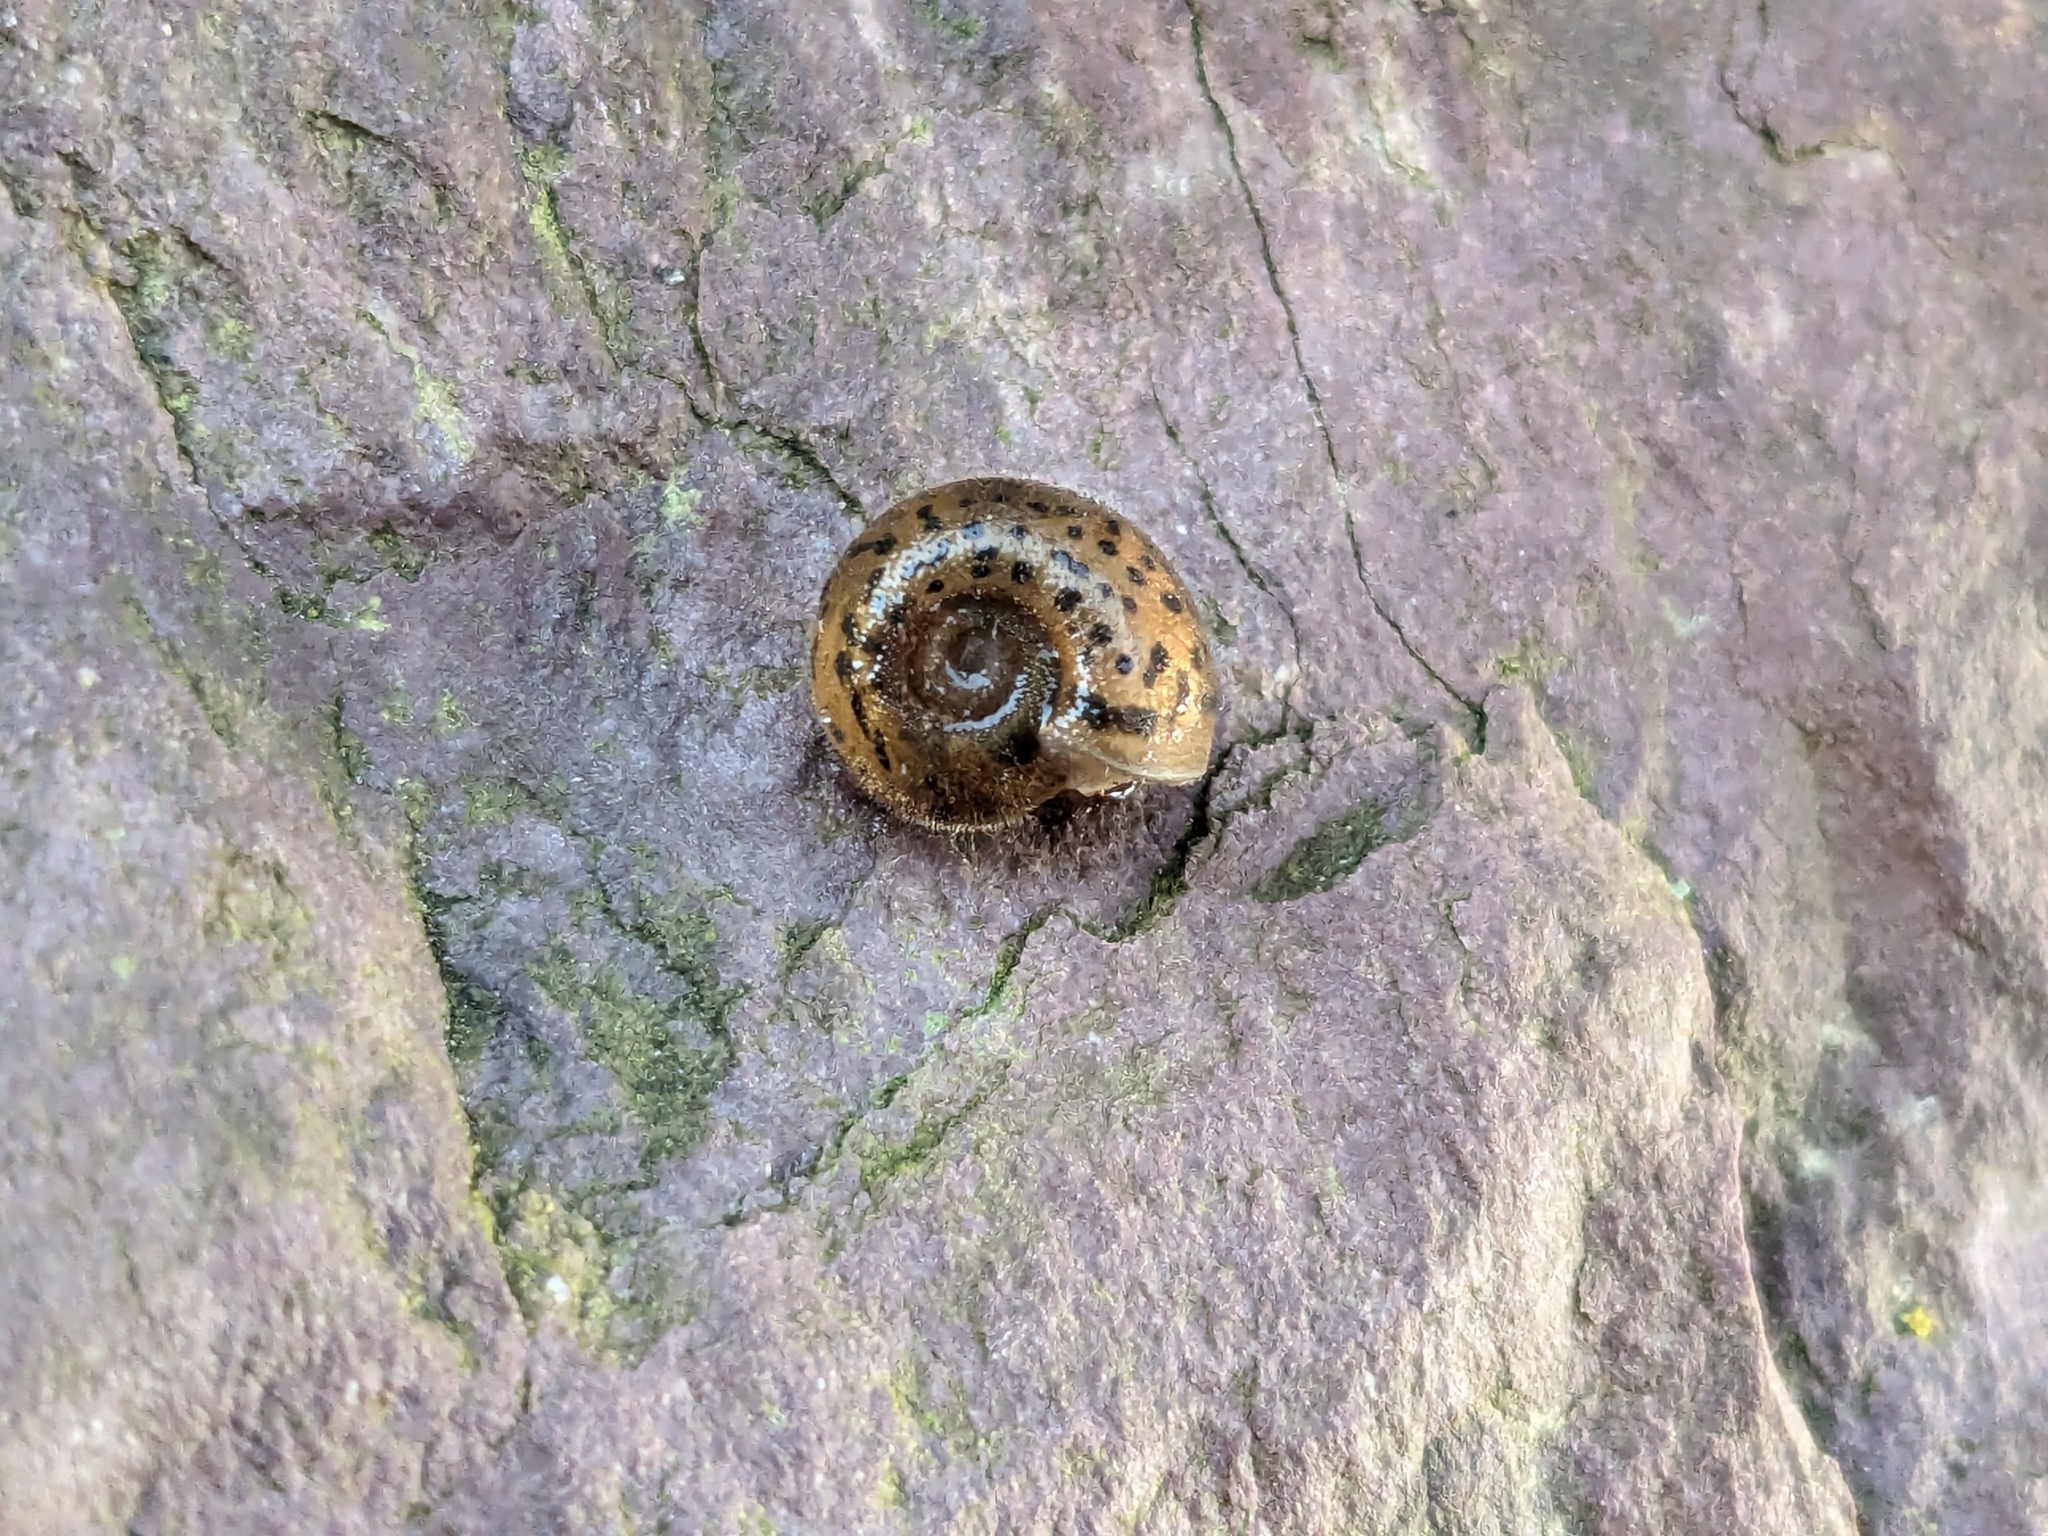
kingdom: Animalia
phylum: Mollusca
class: Gastropoda
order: Stylommatophora
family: Elonidae
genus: Elona
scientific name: Elona quimperiana
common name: Quimper snail
